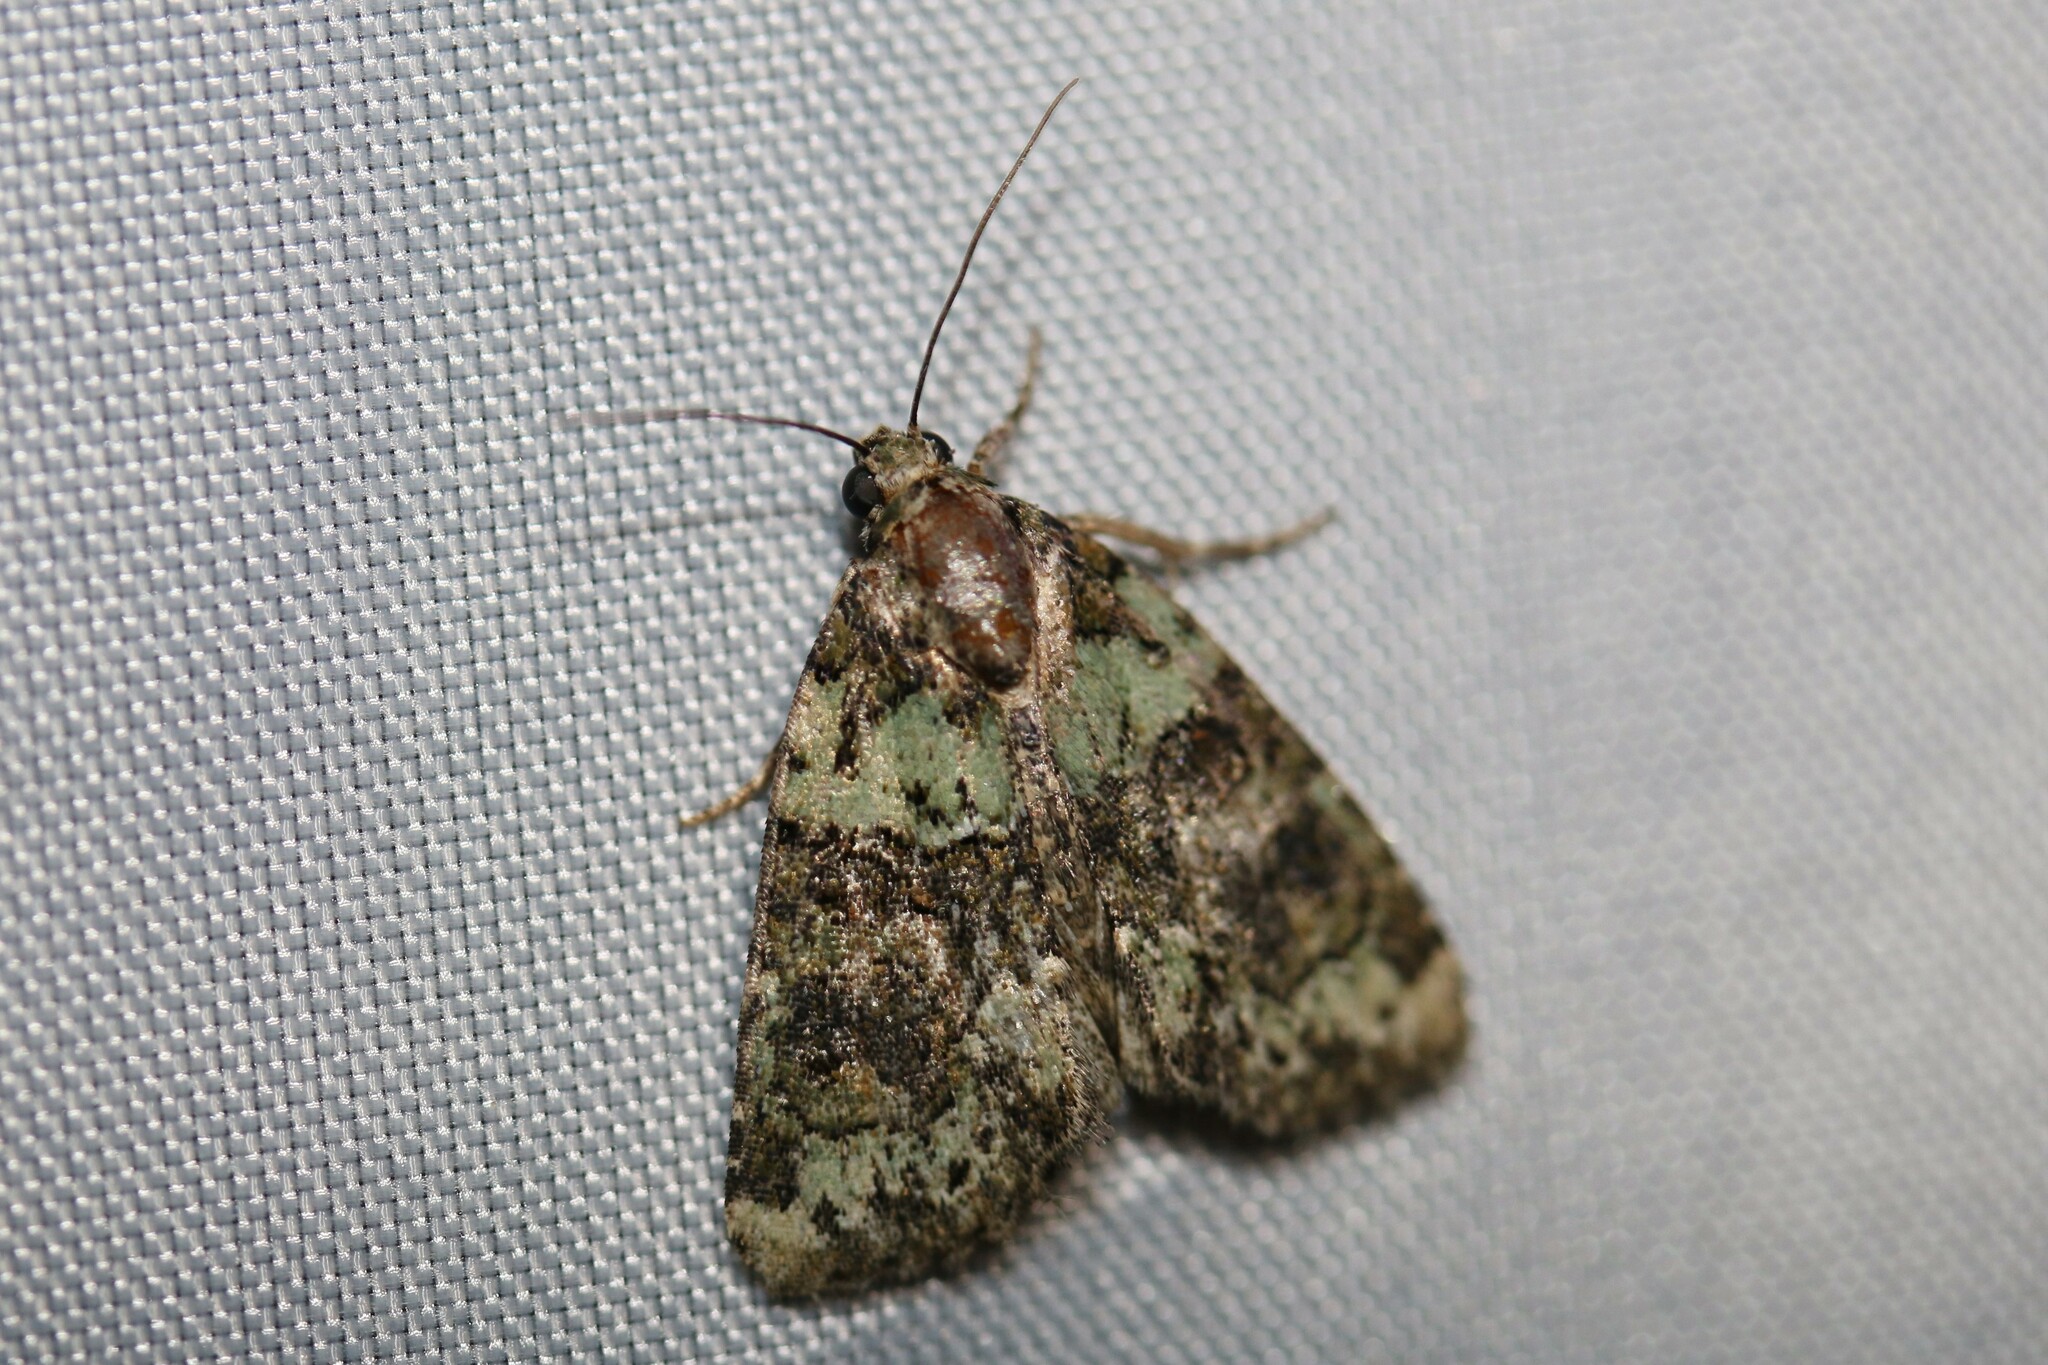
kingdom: Animalia
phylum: Arthropoda
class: Insecta
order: Lepidoptera
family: Noctuidae
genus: Cryphia
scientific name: Cryphia algae
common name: Tree-lichen beauty
